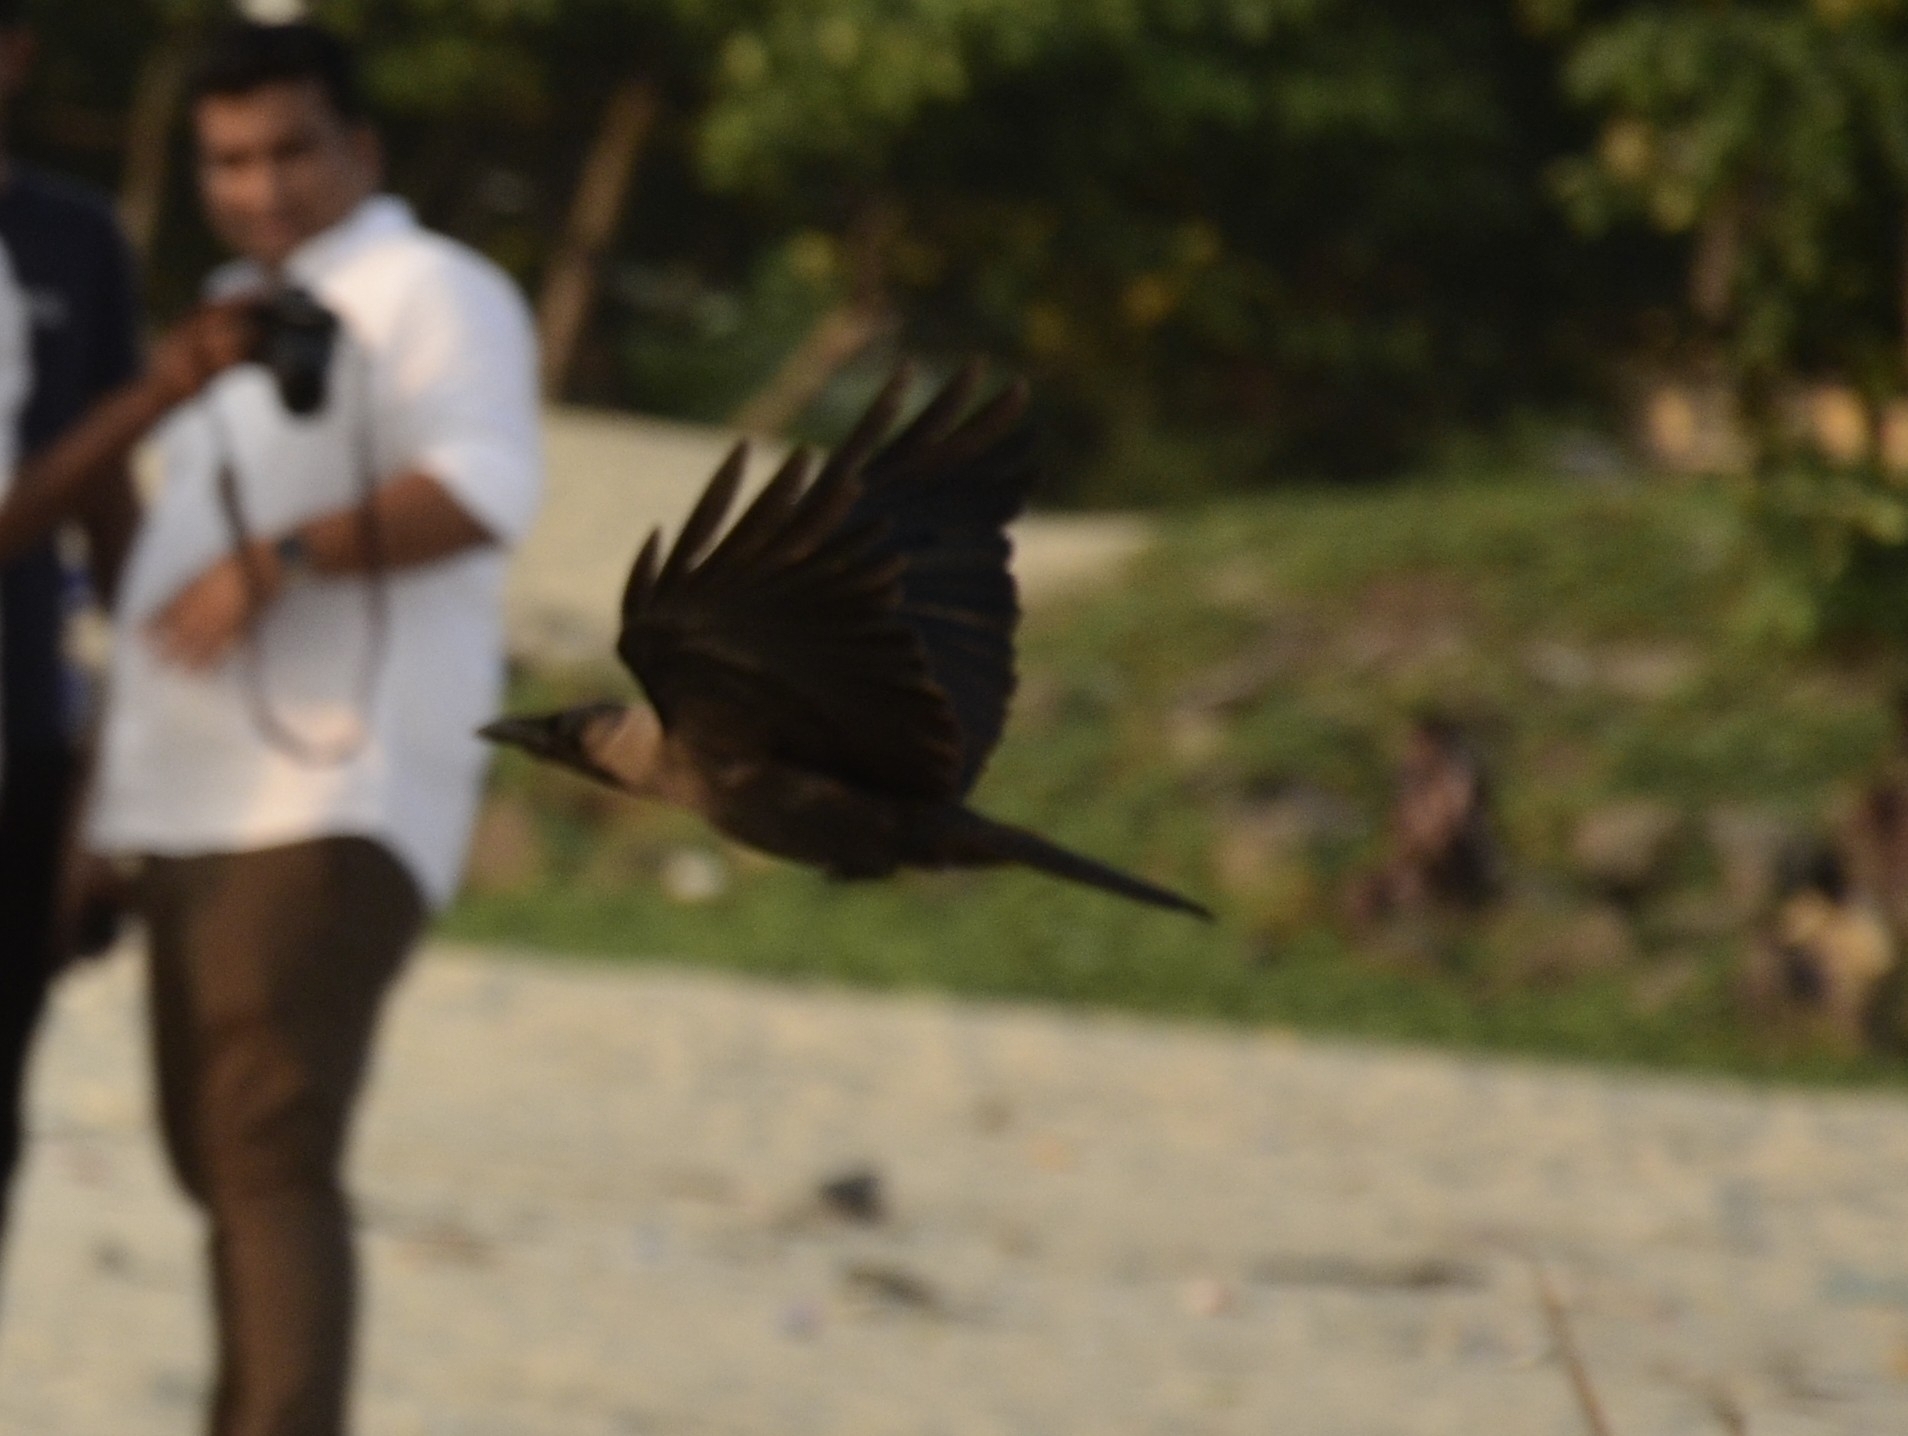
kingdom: Animalia
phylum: Chordata
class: Aves
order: Passeriformes
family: Corvidae
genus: Corvus
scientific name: Corvus splendens
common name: House crow
